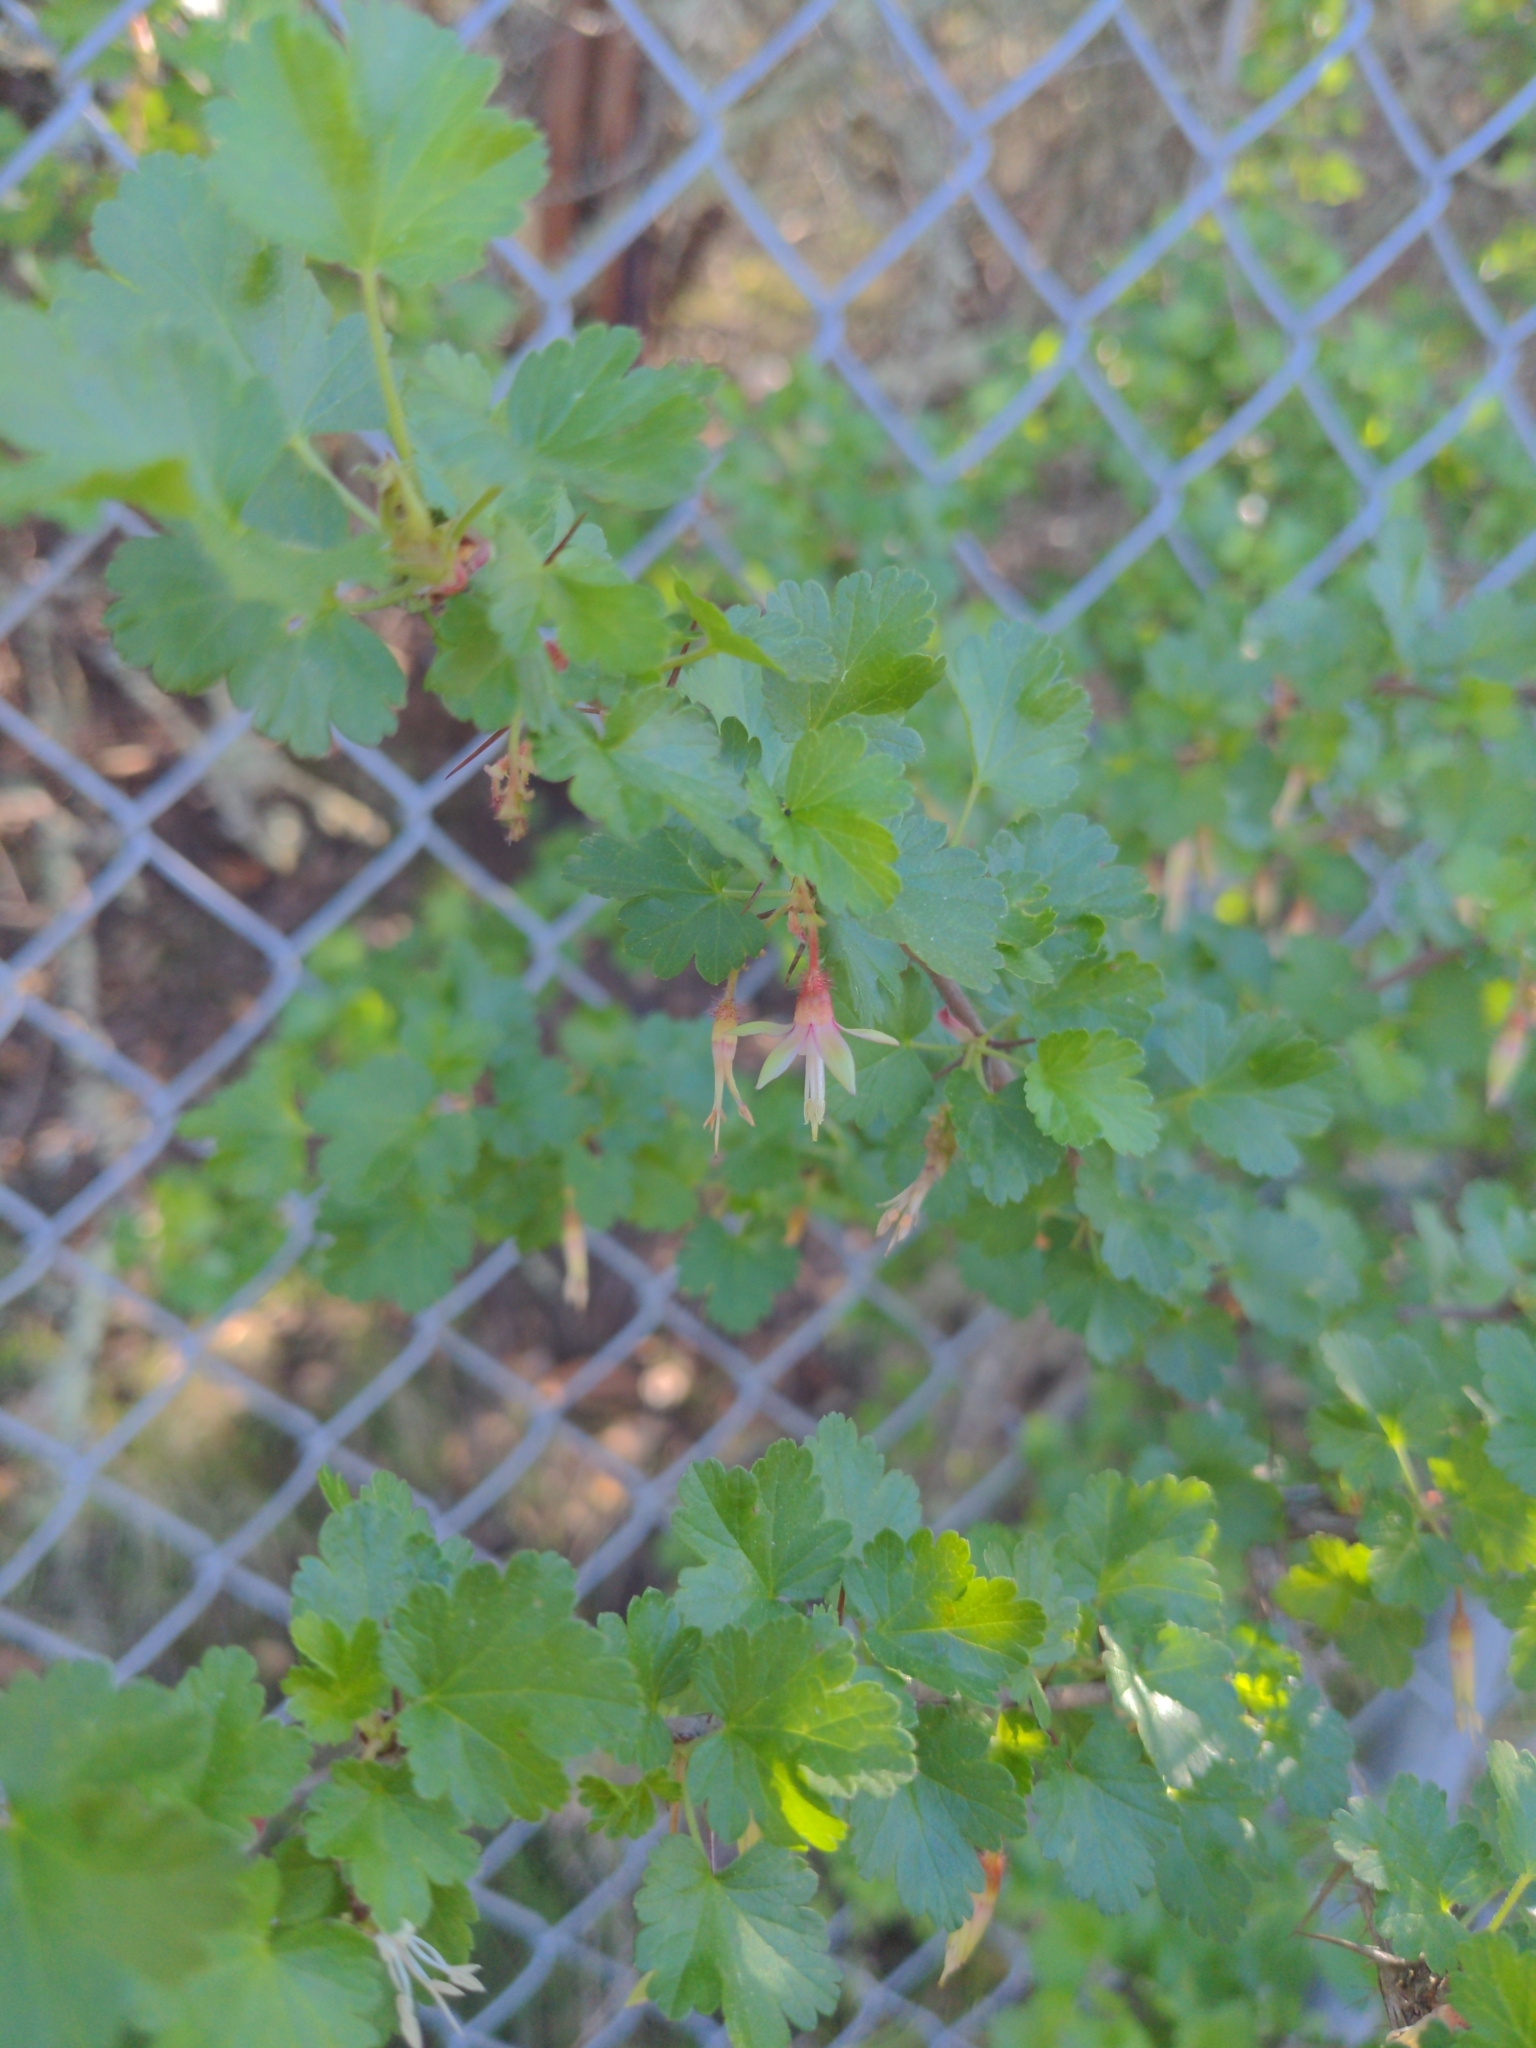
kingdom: Plantae
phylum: Tracheophyta
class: Magnoliopsida
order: Saxifragales
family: Grossulariaceae
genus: Ribes
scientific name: Ribes californicum
